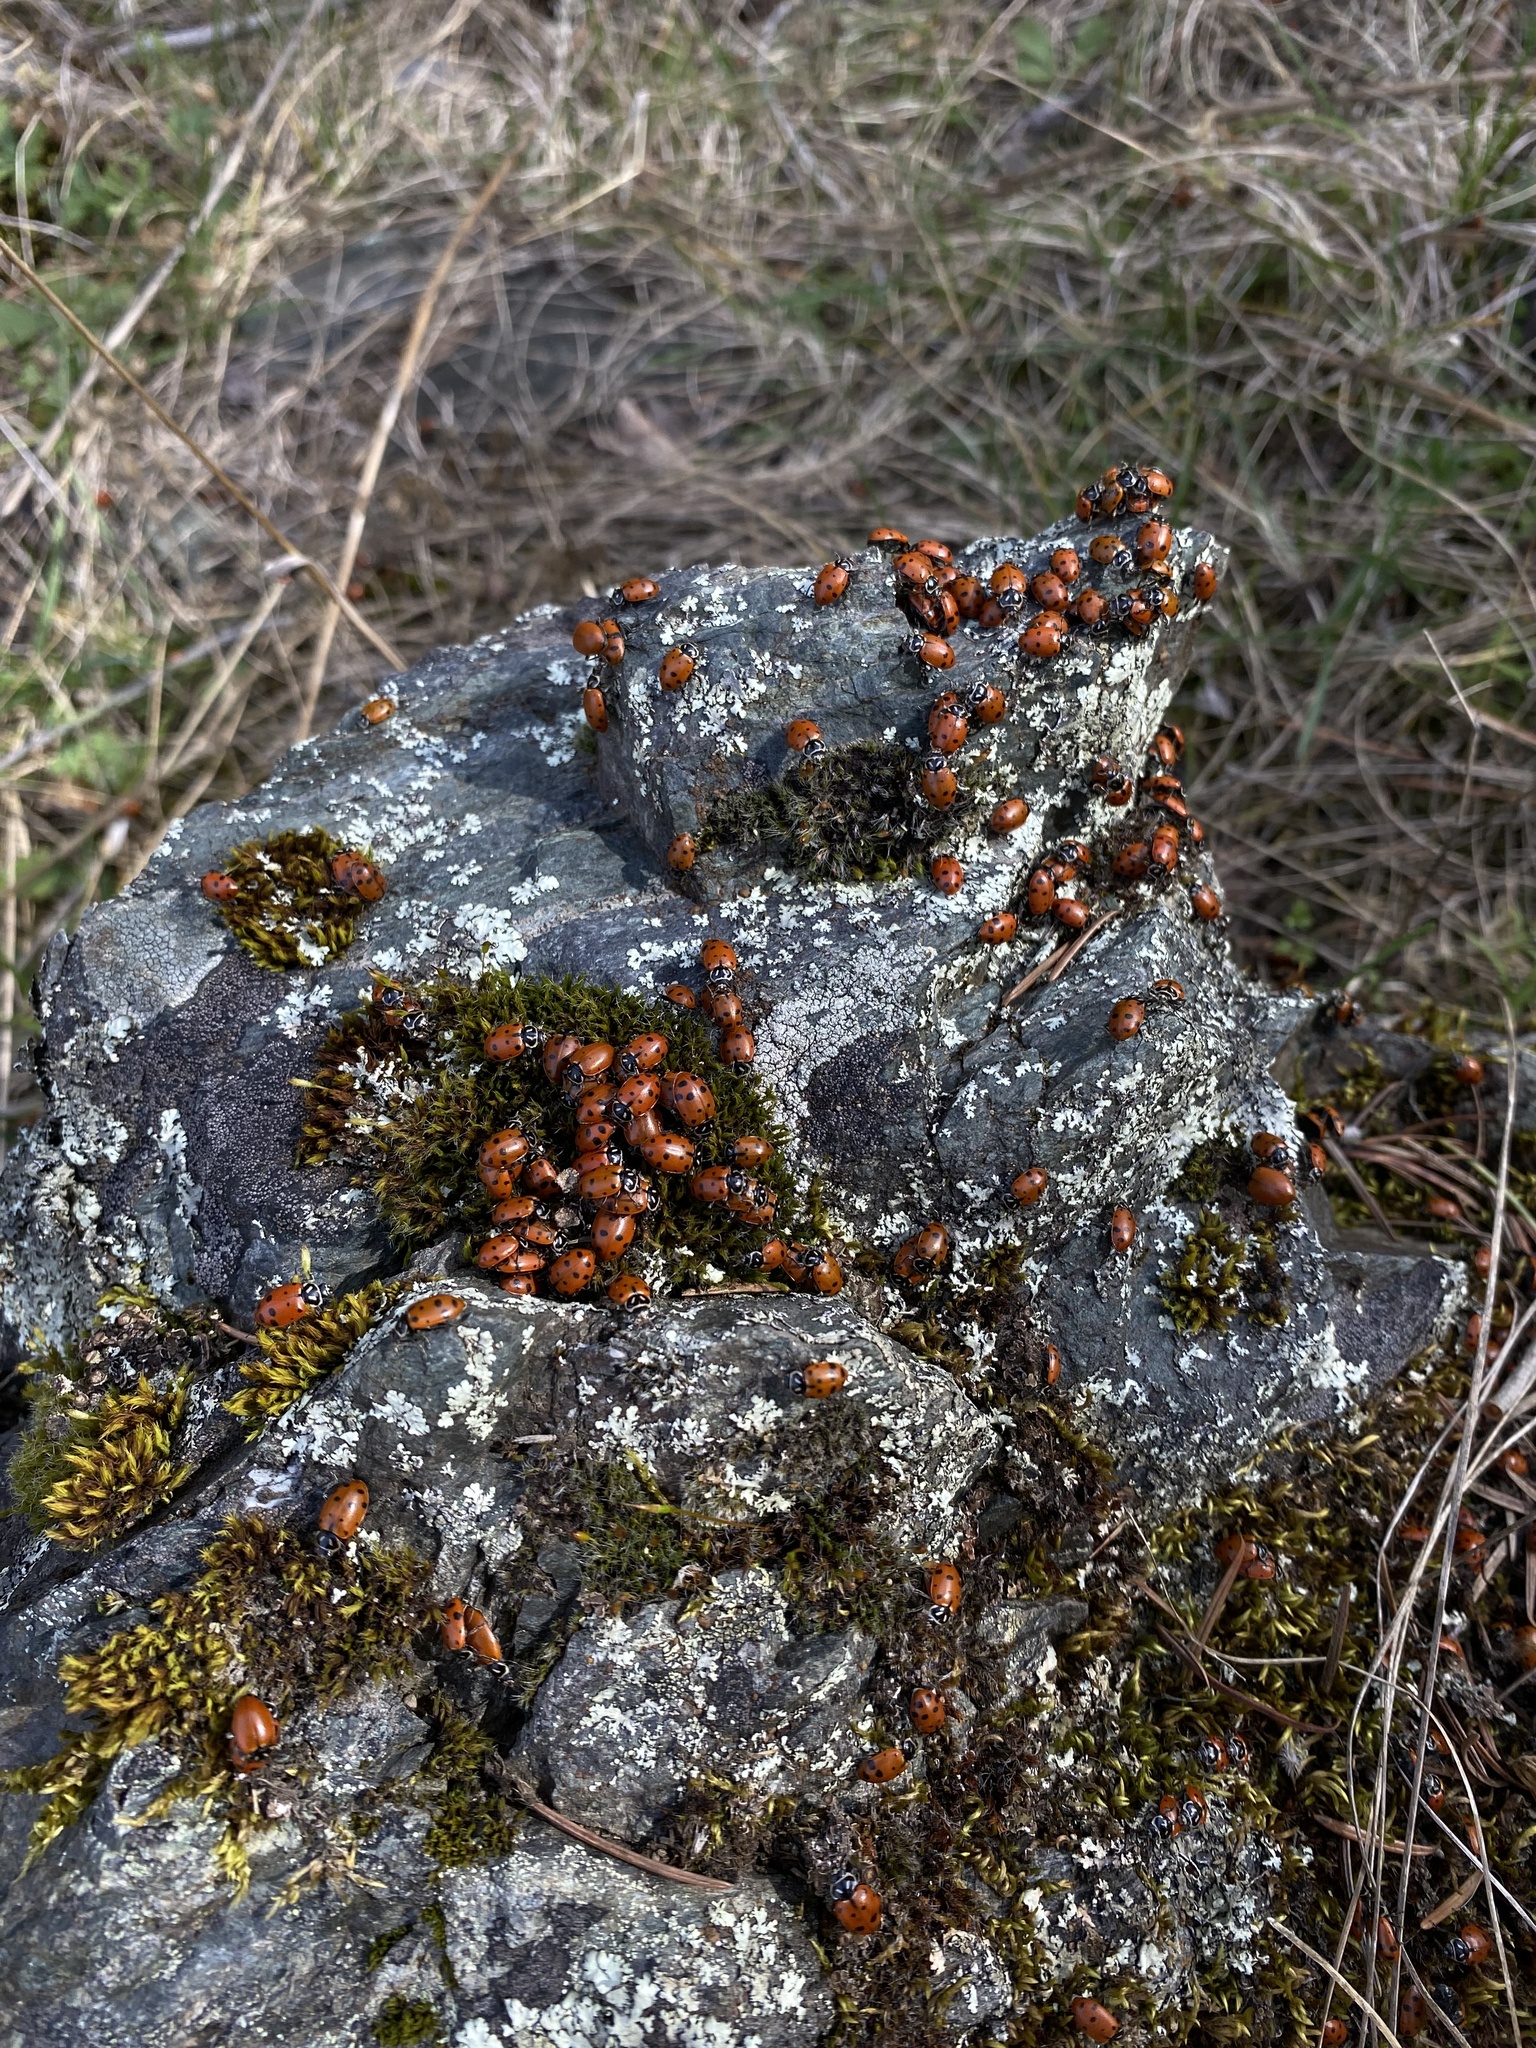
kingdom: Animalia
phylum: Arthropoda
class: Insecta
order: Coleoptera
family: Coccinellidae
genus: Hippodamia
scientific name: Hippodamia convergens
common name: Convergent lady beetle
